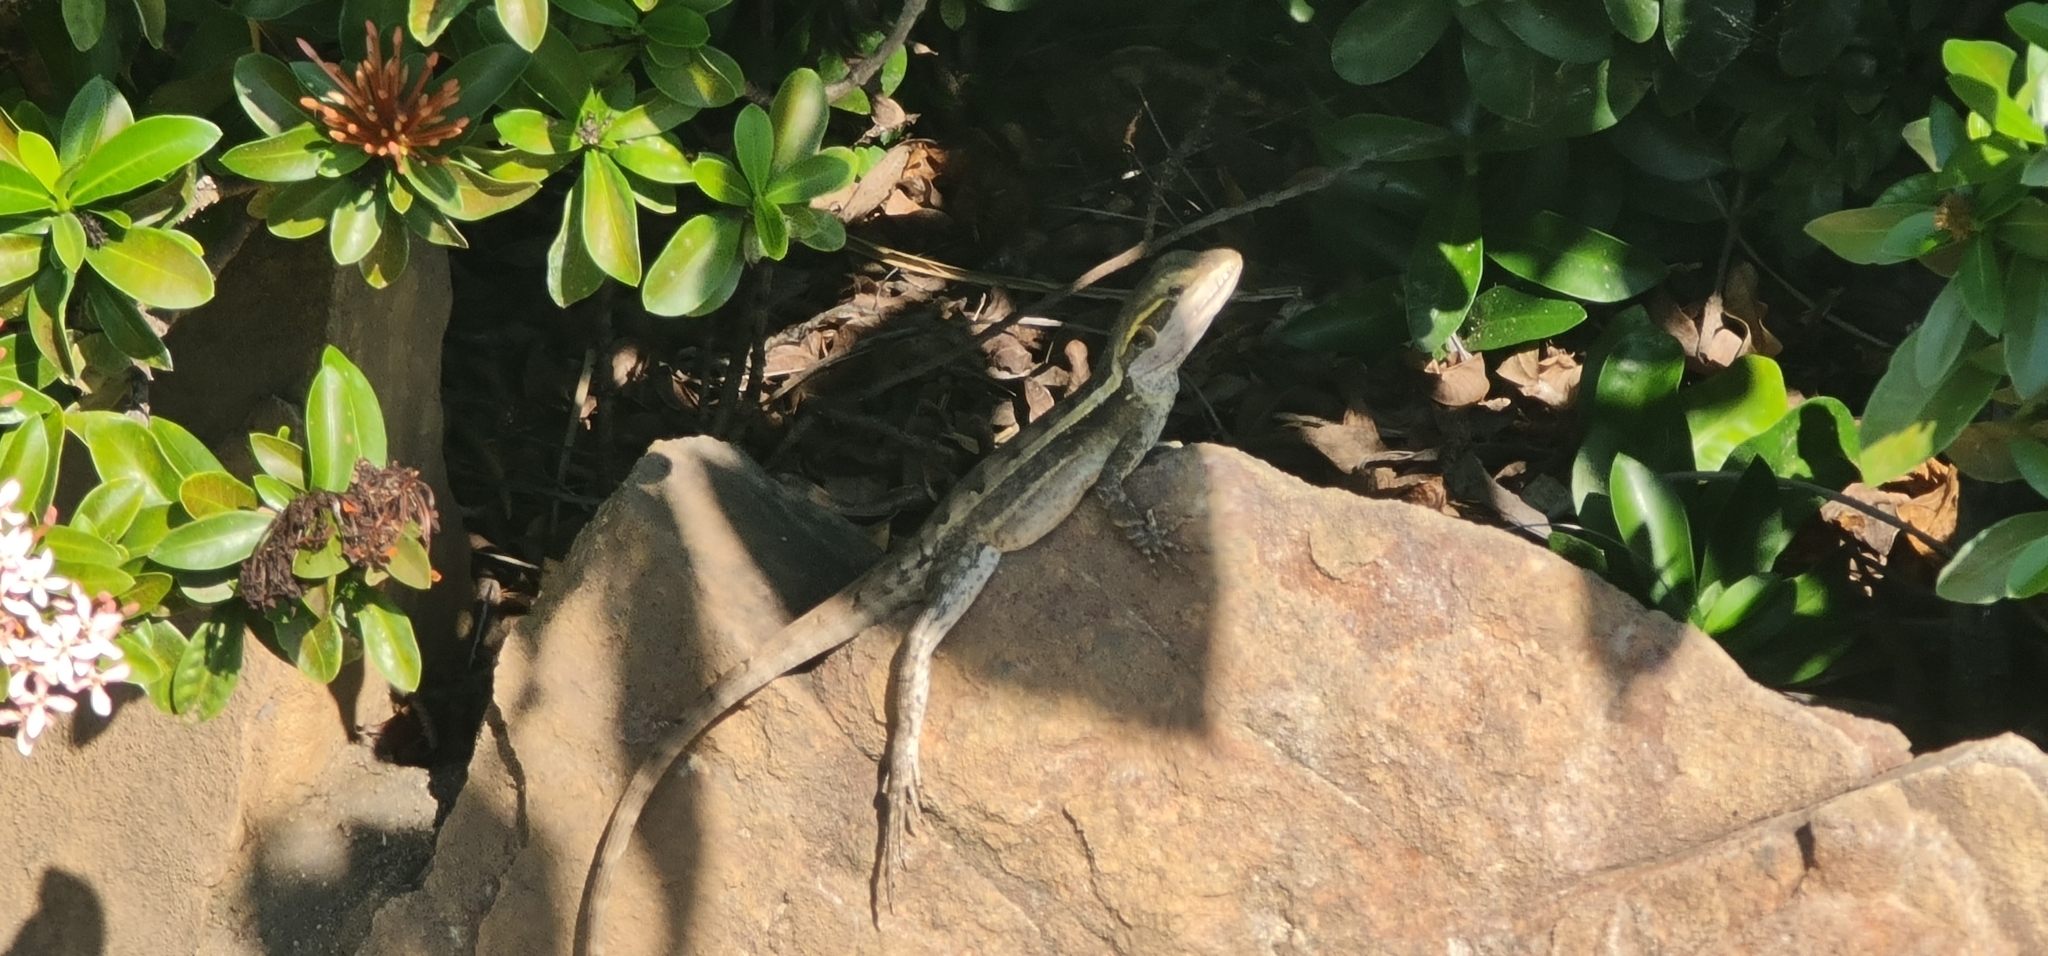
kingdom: Animalia
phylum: Chordata
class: Squamata
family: Agamidae
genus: Lophognathus
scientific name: Lophognathus gilberti
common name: Gilbert's dragon
